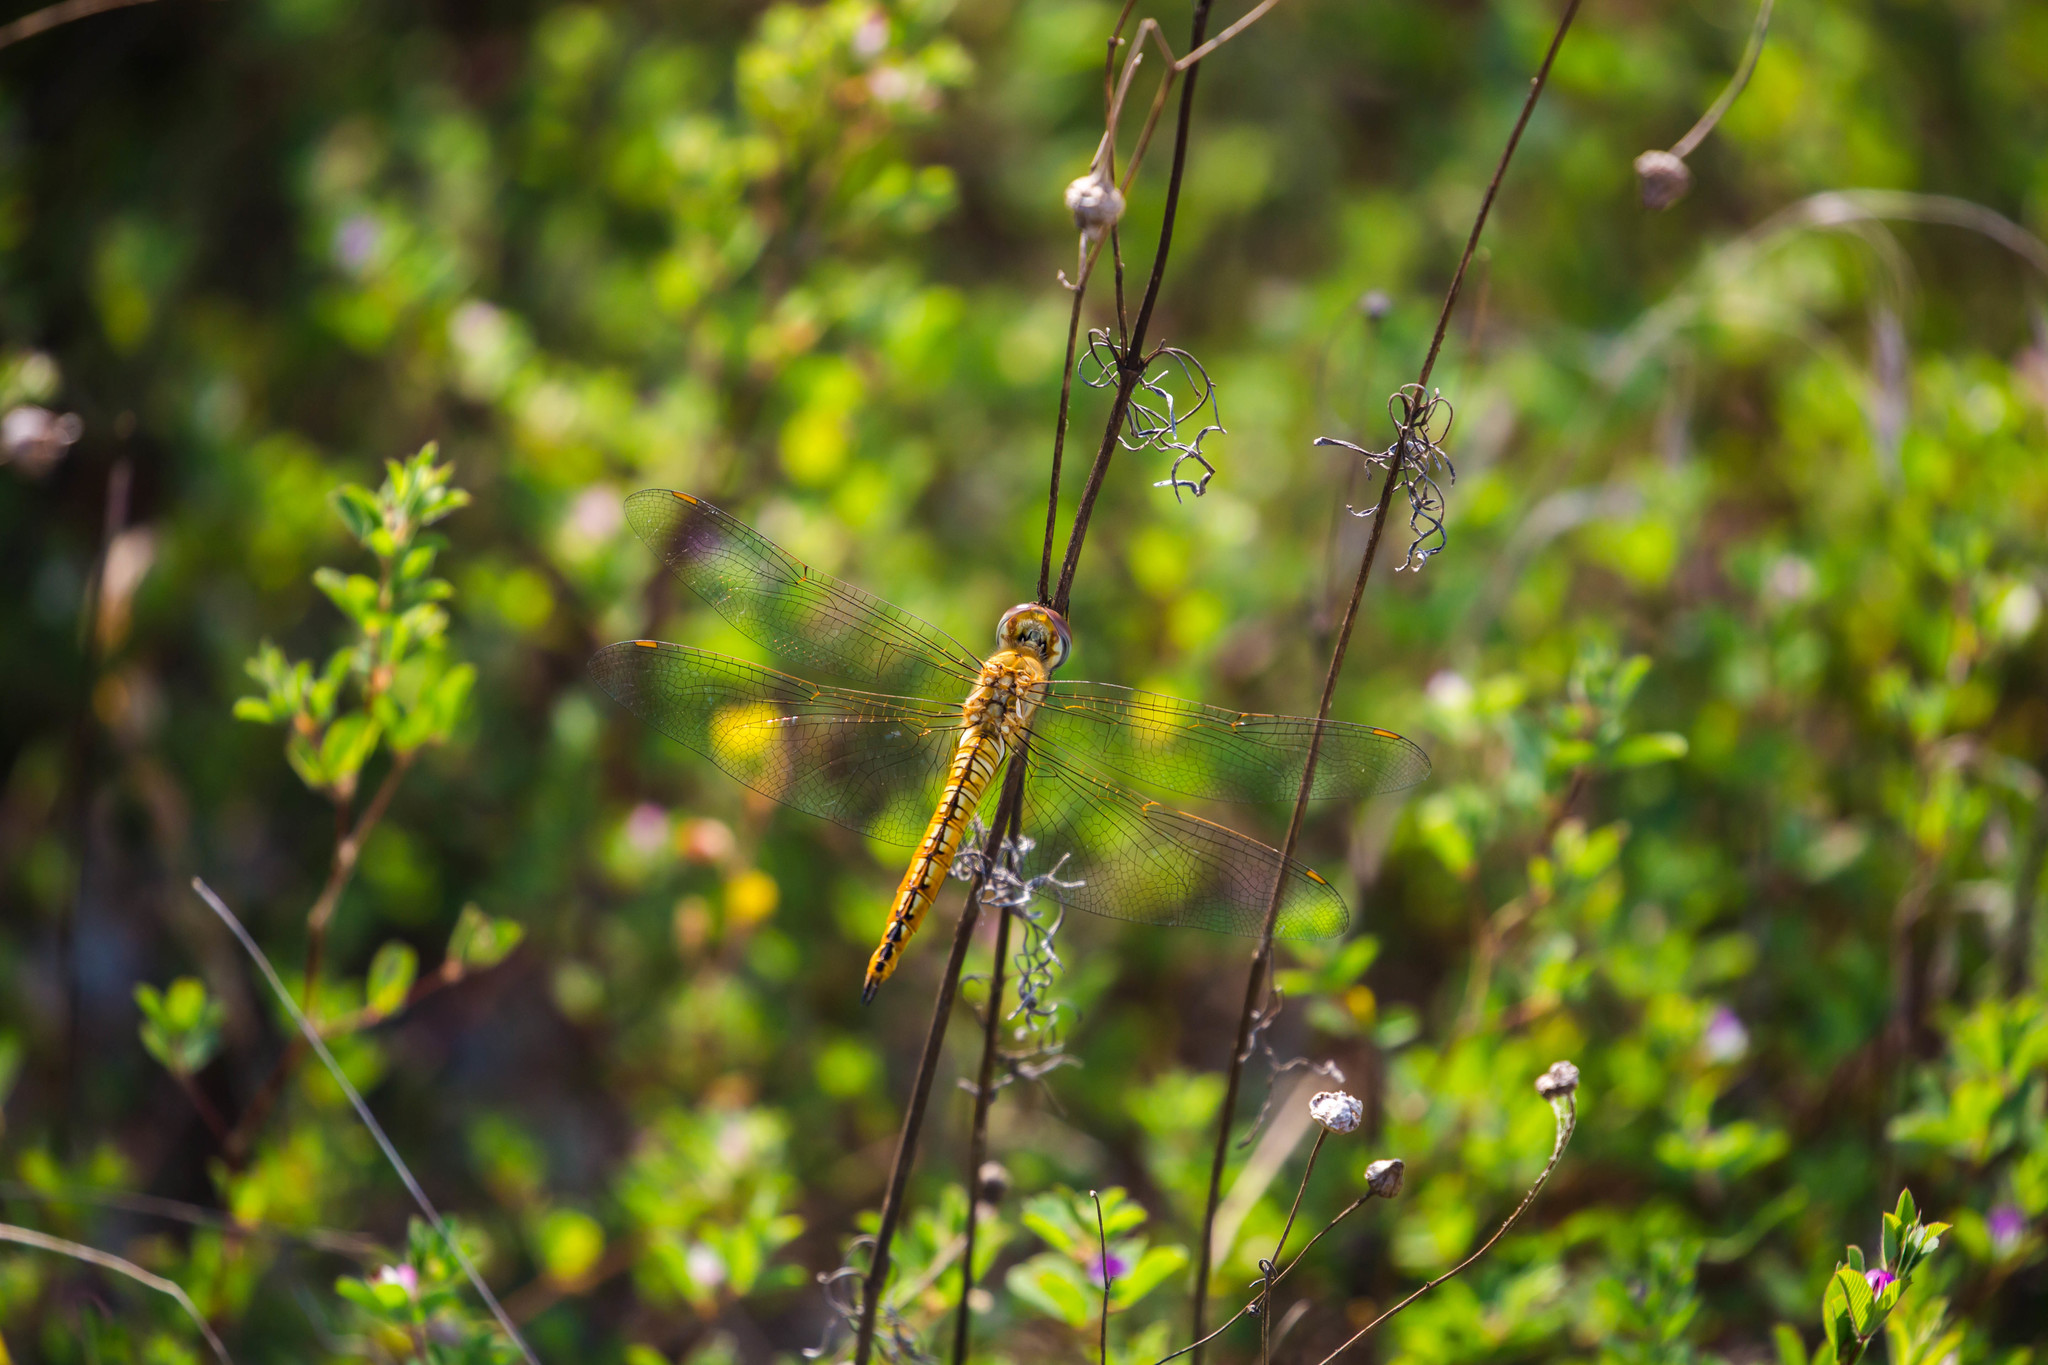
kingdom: Animalia
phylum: Arthropoda
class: Insecta
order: Odonata
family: Libellulidae
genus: Pantala
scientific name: Pantala flavescens
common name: Wandering glider
